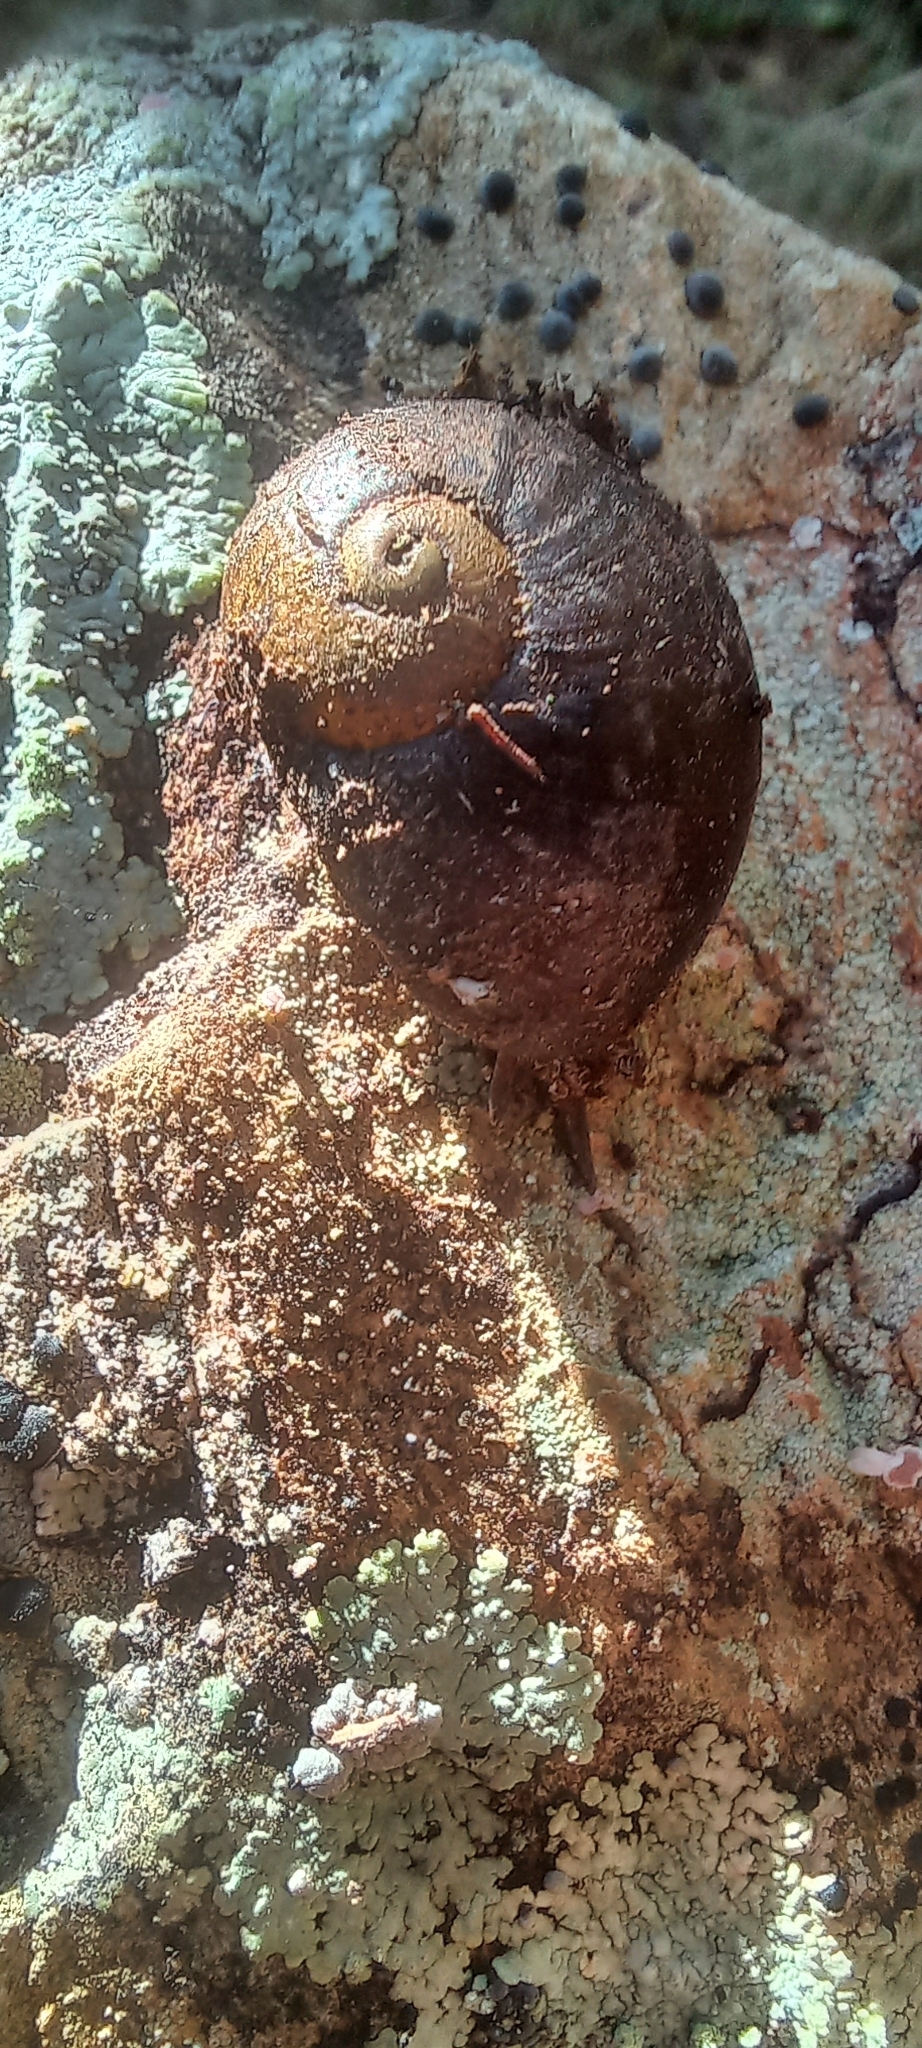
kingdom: Animalia
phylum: Mollusca
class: Gastropoda
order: Stylommatophora
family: Rhytididae
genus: Wainuia
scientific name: Wainuia nasuta
